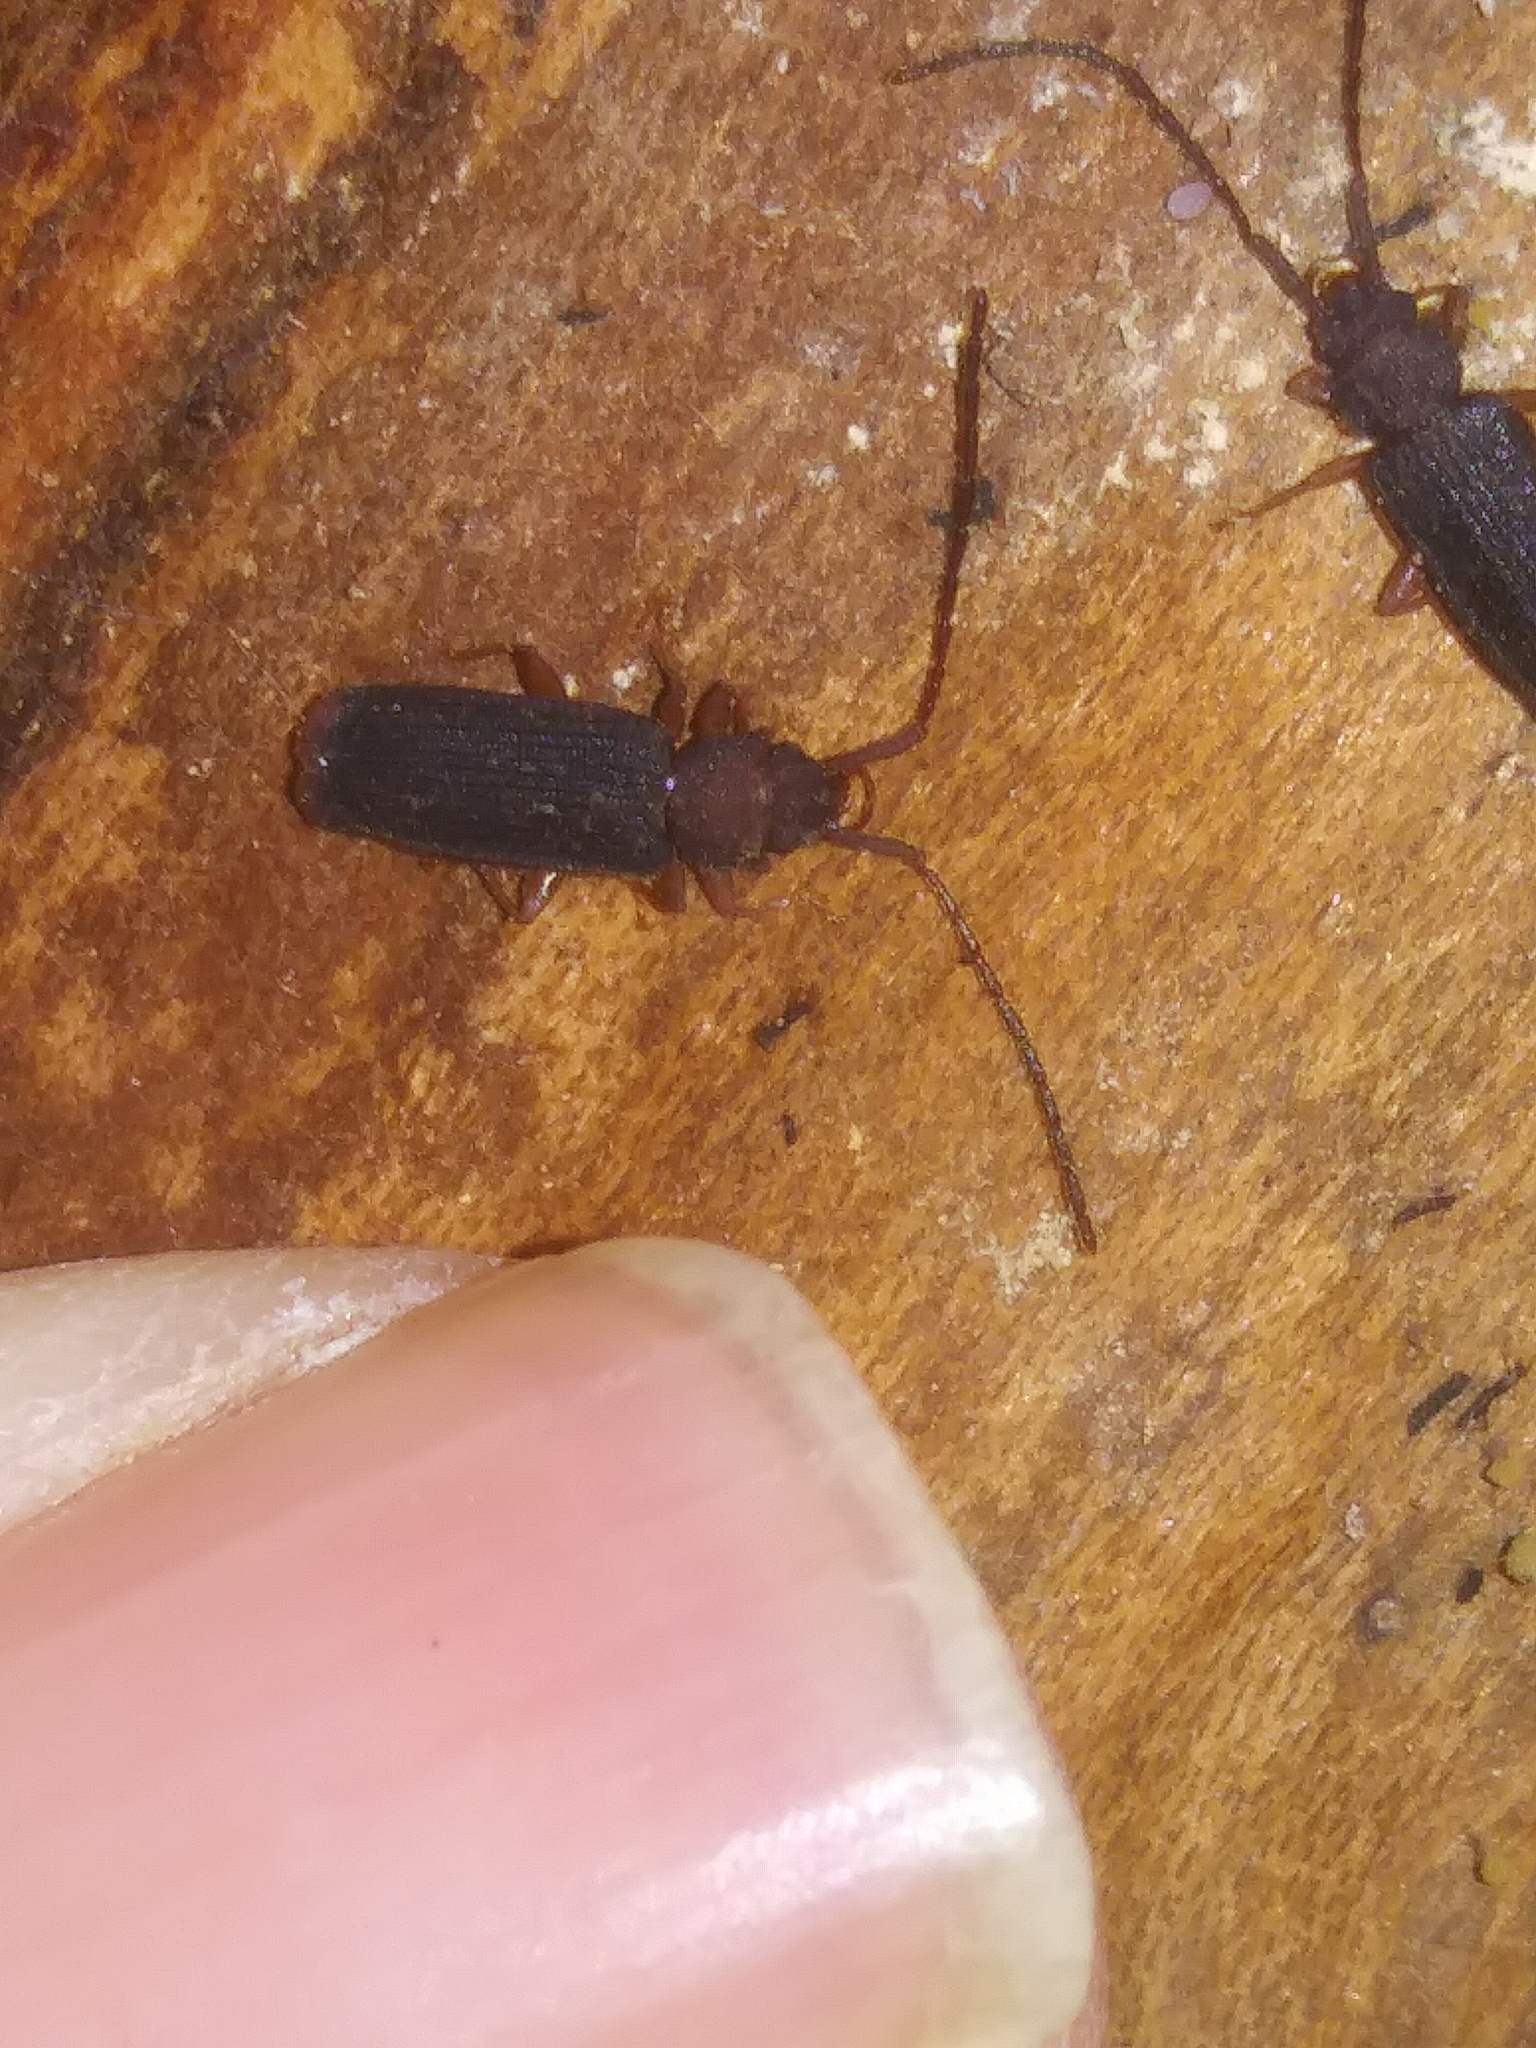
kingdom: Animalia
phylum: Arthropoda
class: Insecta
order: Coleoptera
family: Silvanidae
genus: Uleiota
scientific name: Uleiota dubia
